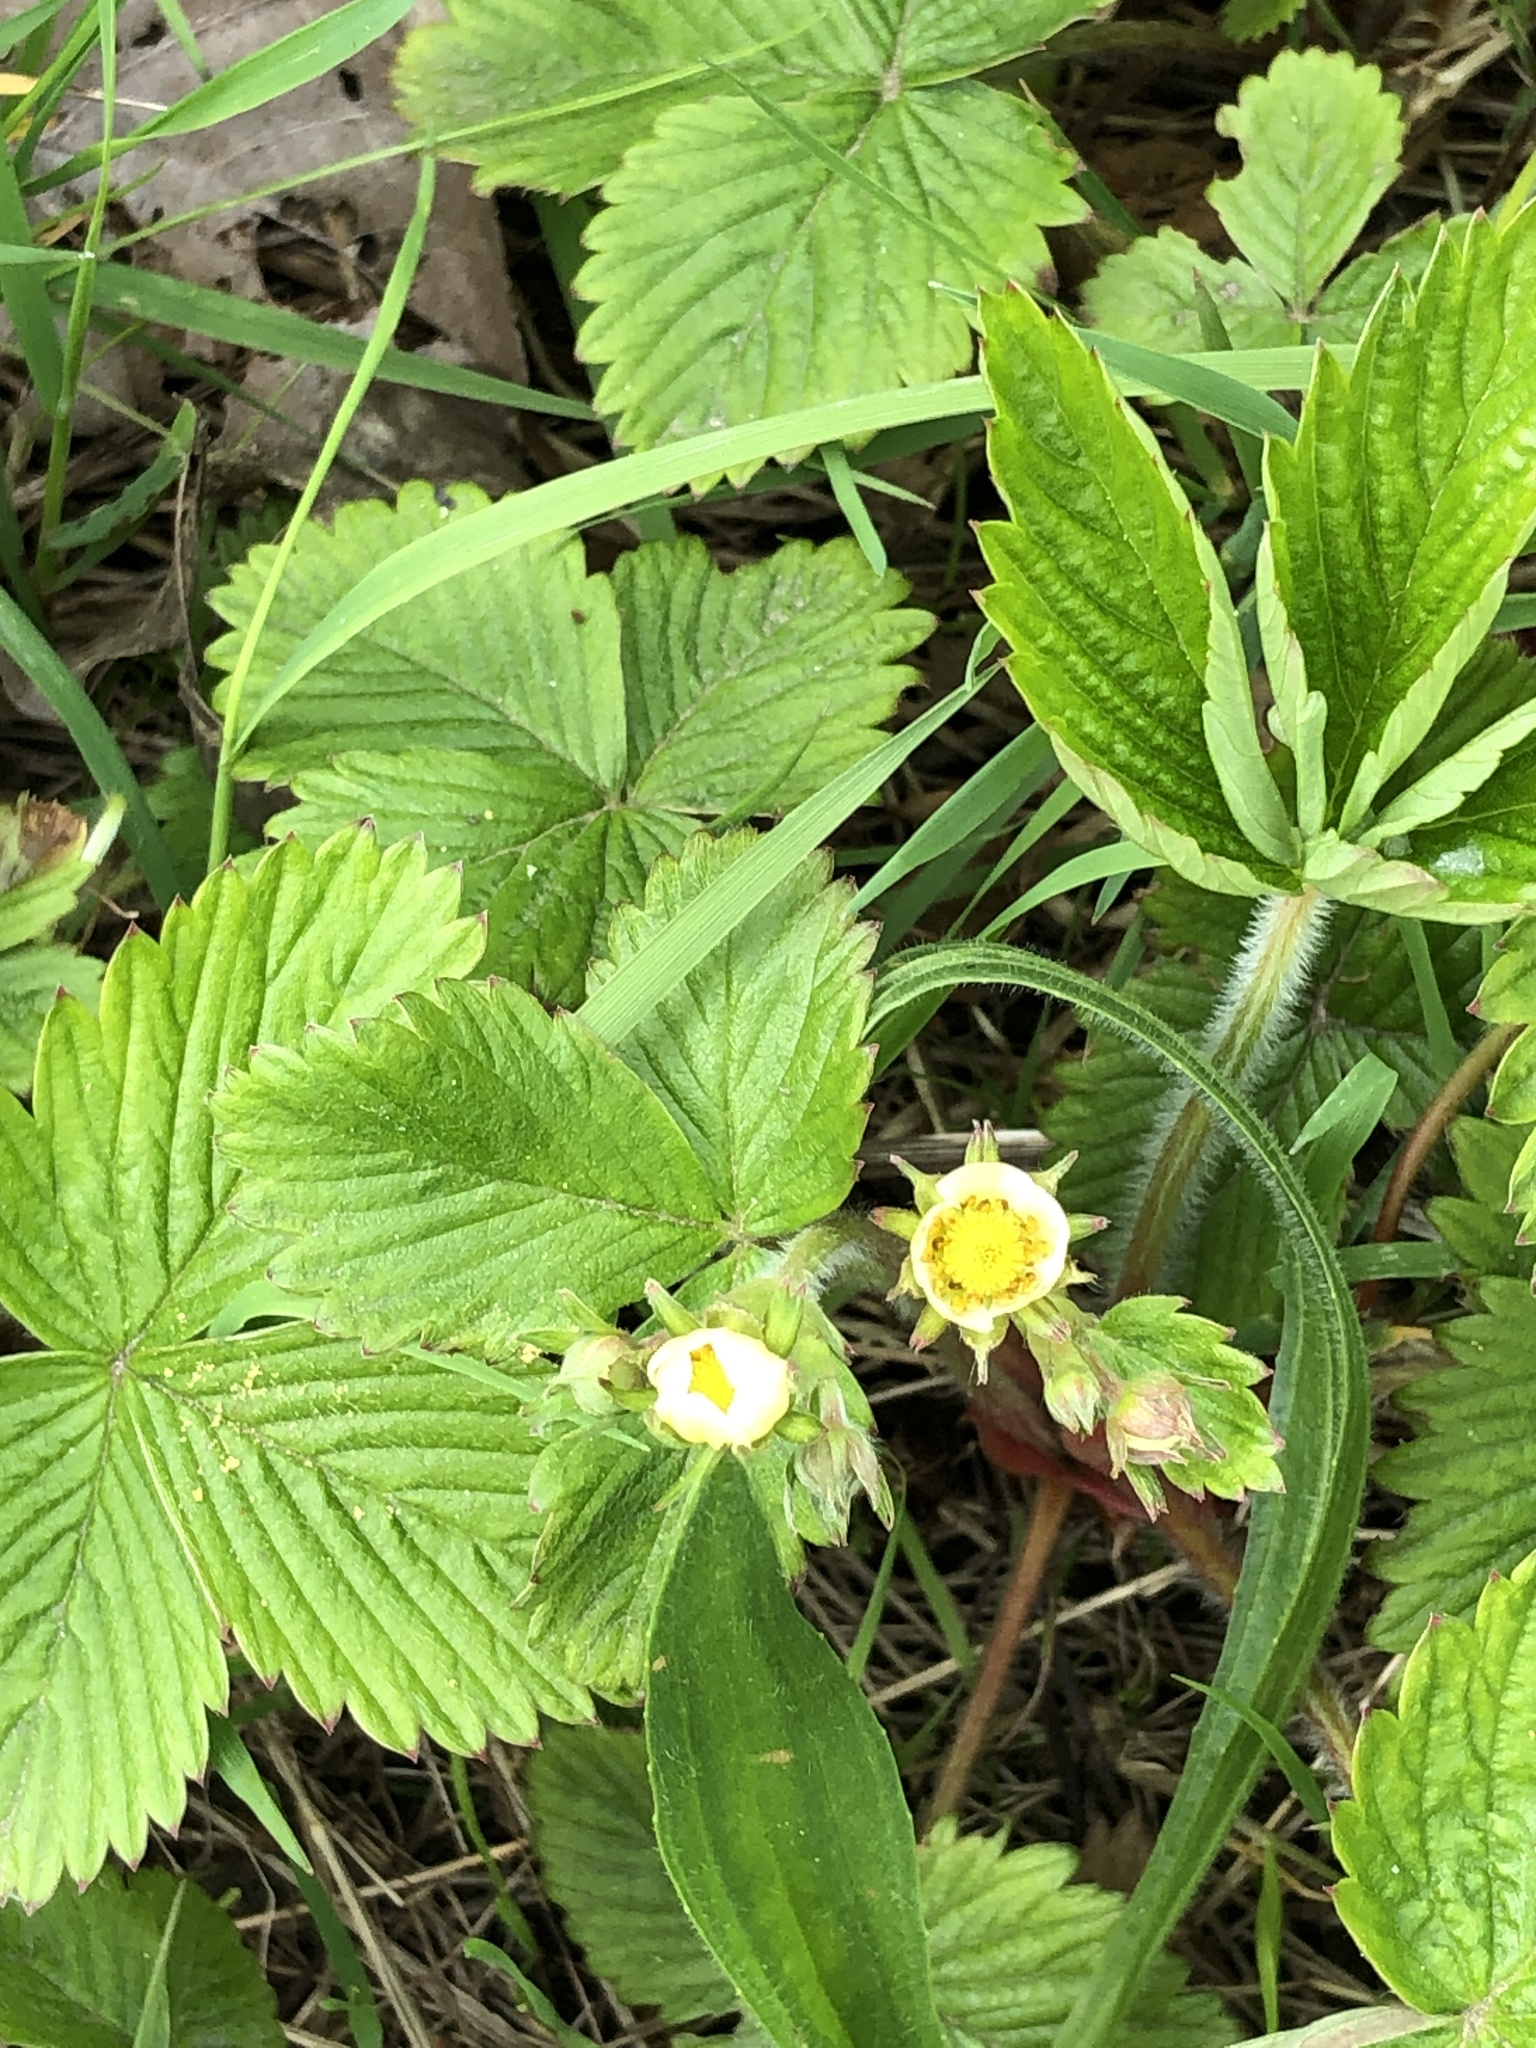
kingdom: Plantae
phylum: Tracheophyta
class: Magnoliopsida
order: Rosales
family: Rosaceae
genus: Fragaria
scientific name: Fragaria vesca
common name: Wild strawberry
